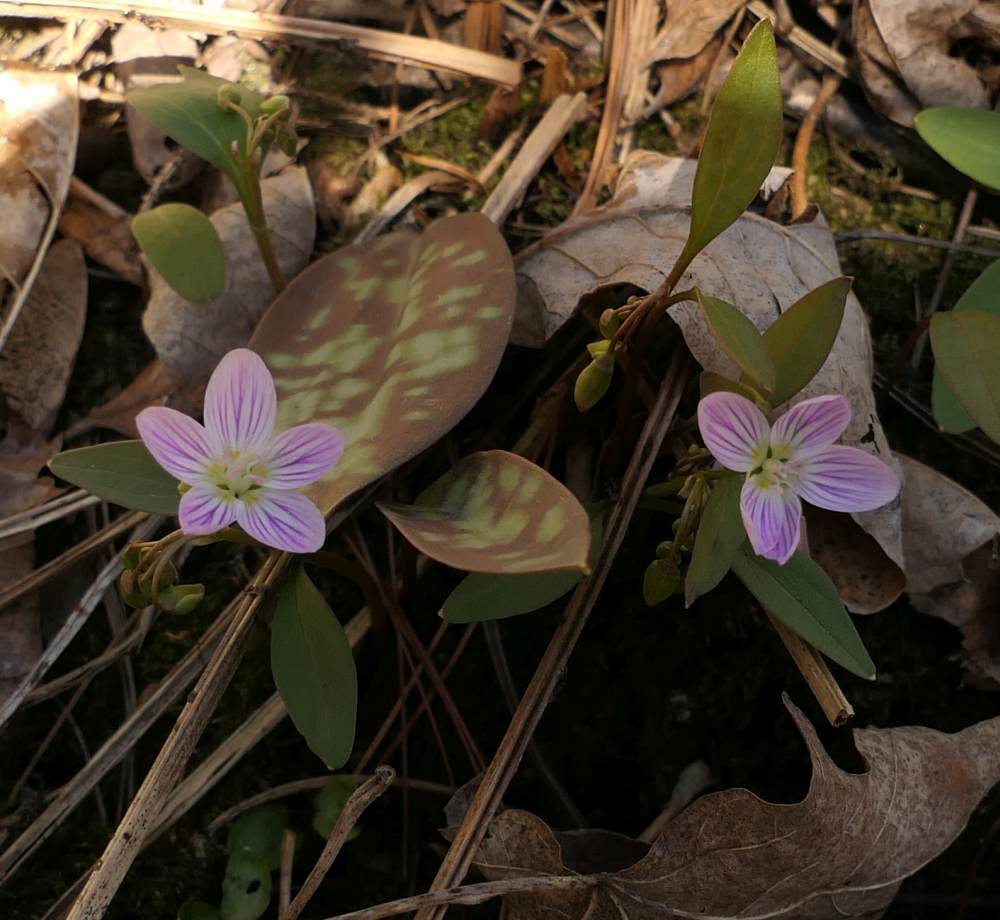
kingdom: Plantae
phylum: Tracheophyta
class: Magnoliopsida
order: Caryophyllales
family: Montiaceae
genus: Claytonia
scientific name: Claytonia caroliniana
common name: Carolina spring beauty
